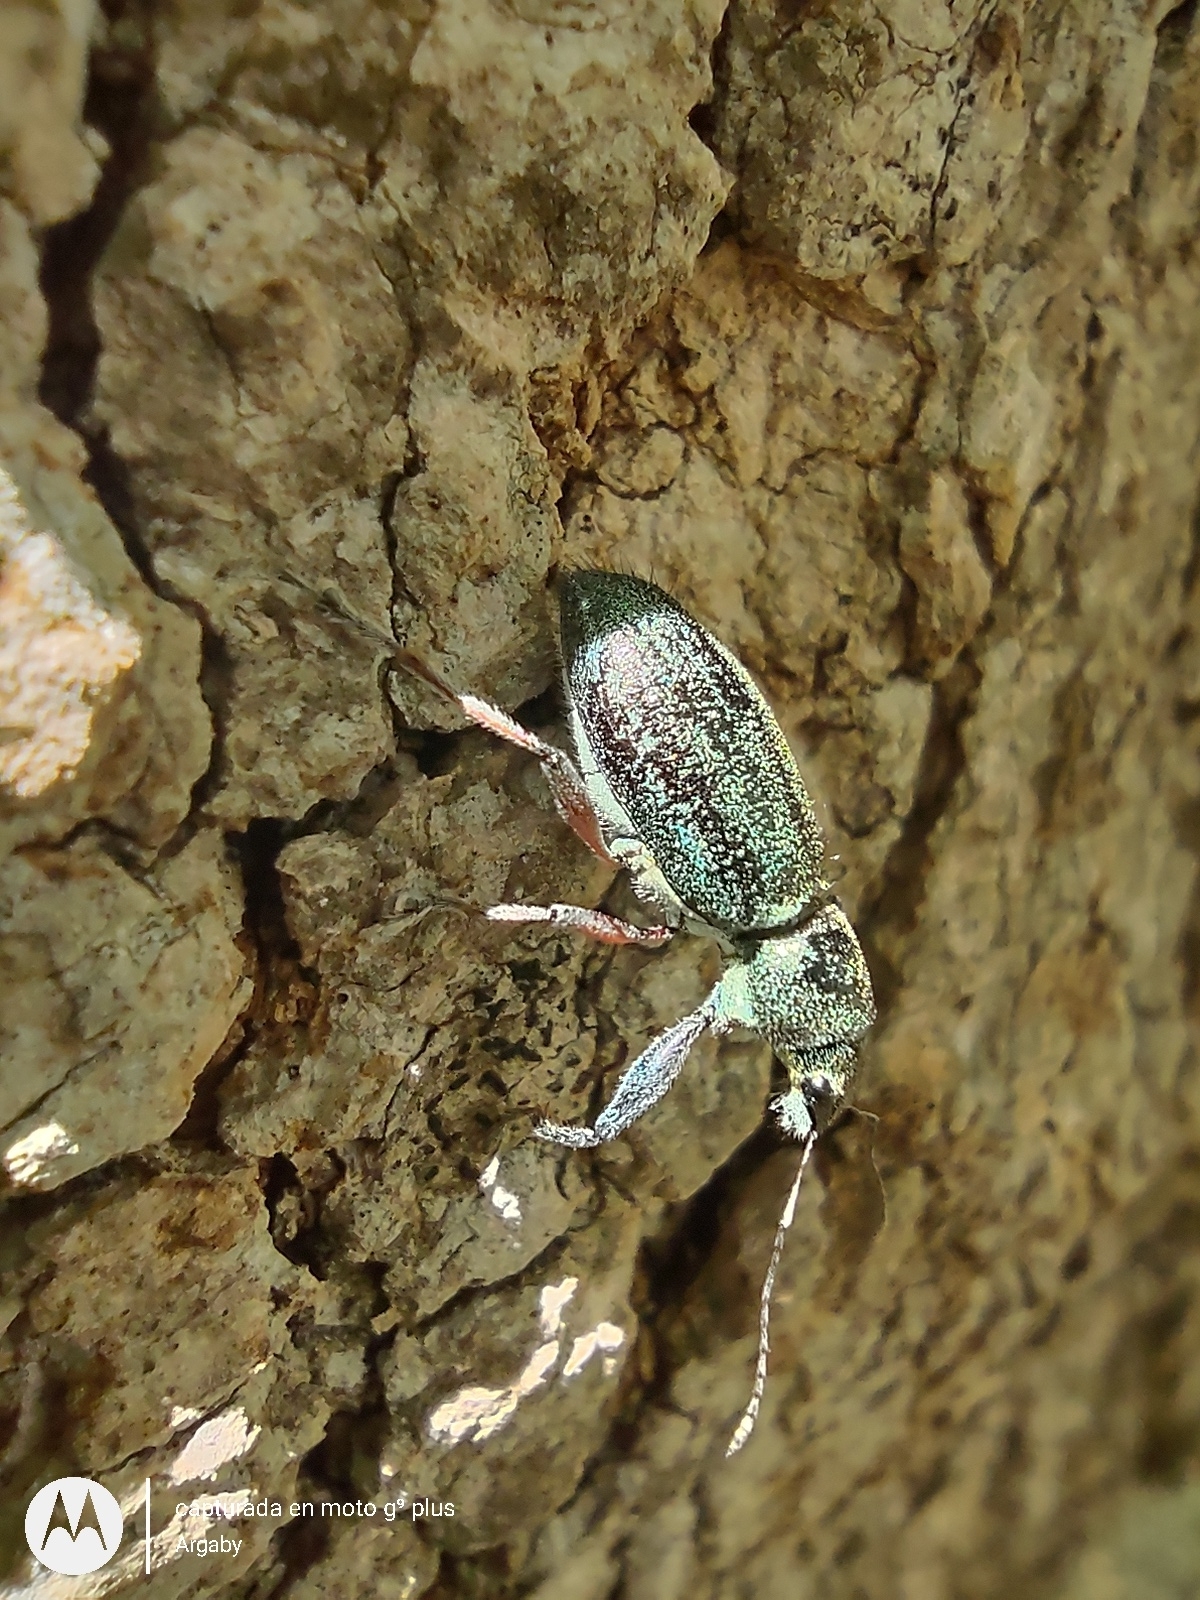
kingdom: Animalia
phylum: Arthropoda
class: Insecta
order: Coleoptera
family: Curculionidae
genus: Naupactus
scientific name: Naupactus auricinctus
